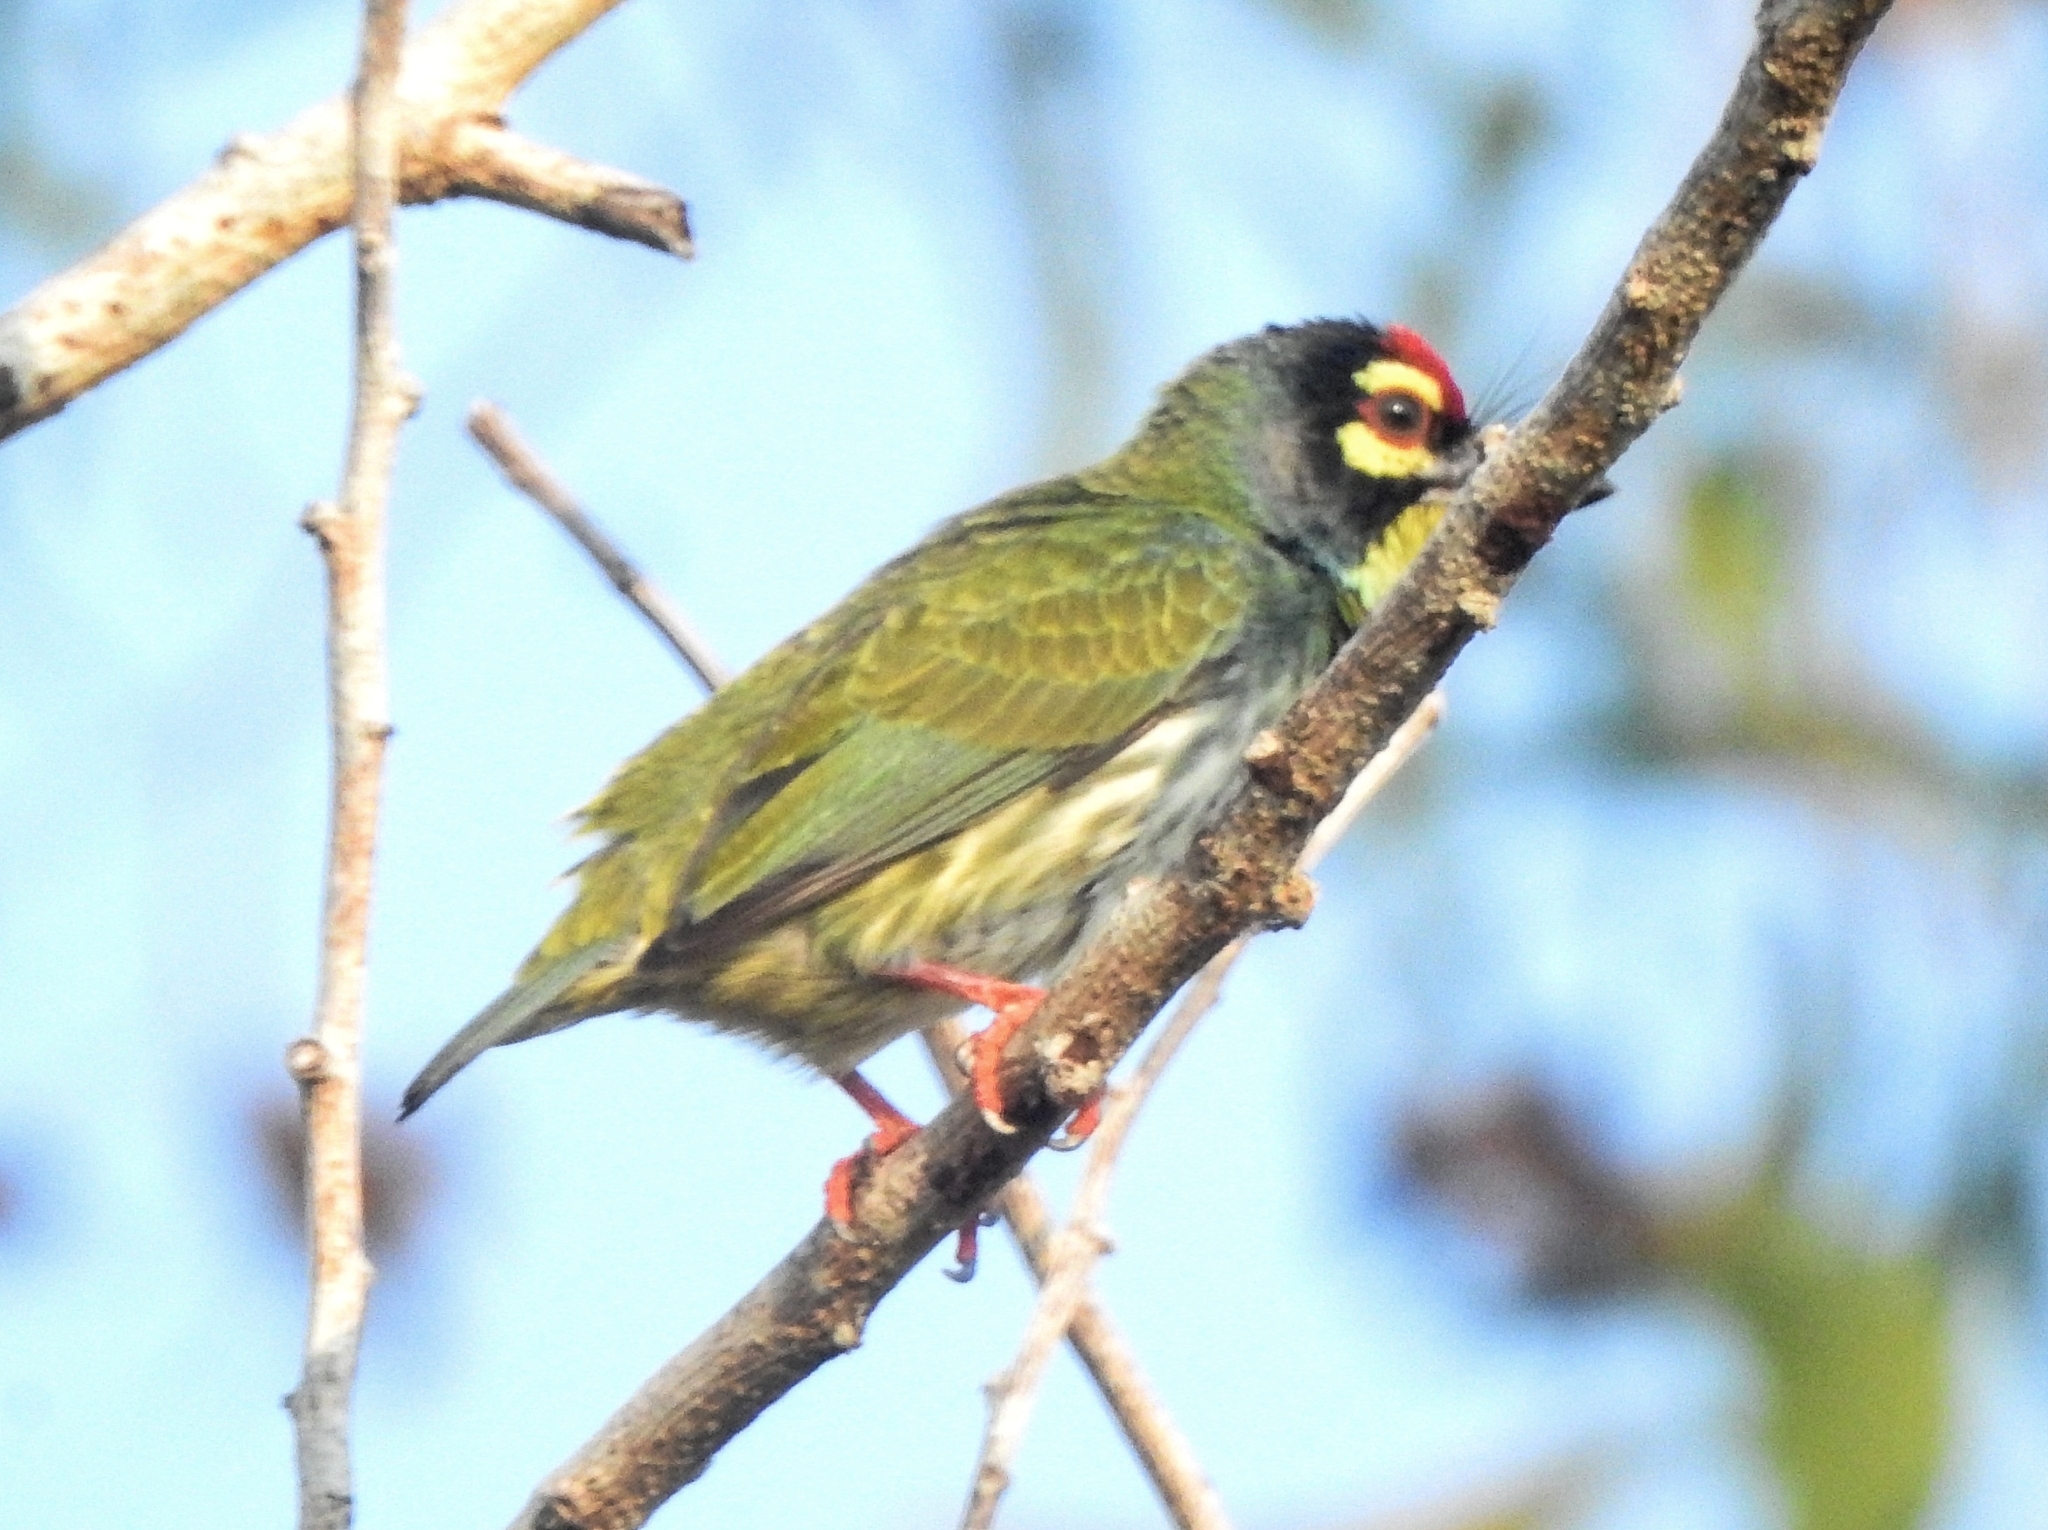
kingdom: Animalia
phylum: Chordata
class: Aves
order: Piciformes
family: Megalaimidae
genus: Psilopogon
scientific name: Psilopogon haemacephalus
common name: Coppersmith barbet
